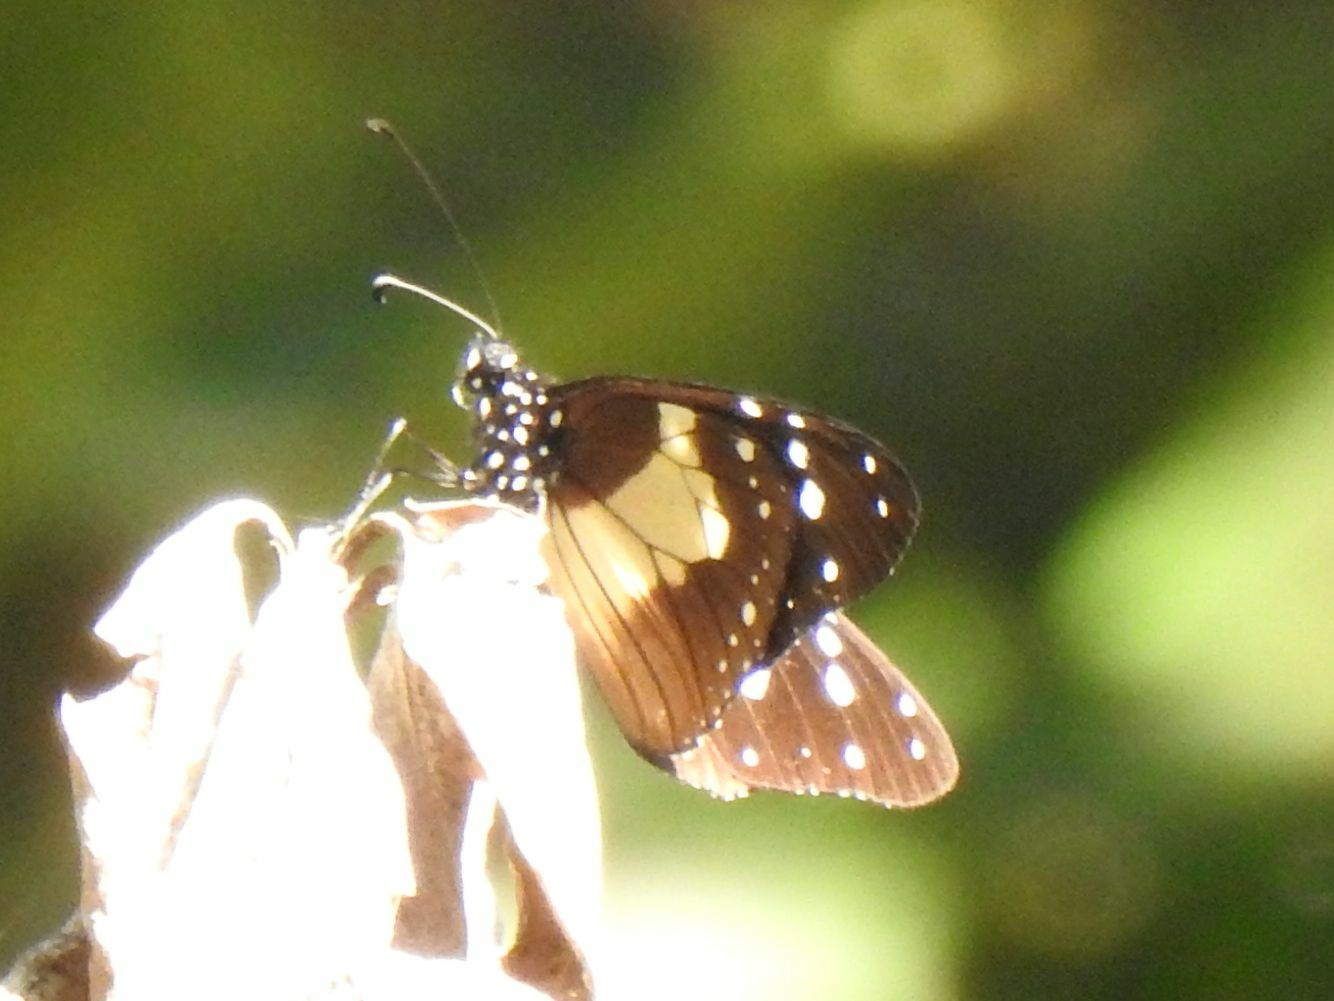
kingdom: Animalia
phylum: Arthropoda
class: Insecta
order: Lepidoptera
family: Nymphalidae
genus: Amauris
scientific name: Amauris albimaculata
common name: Layman
